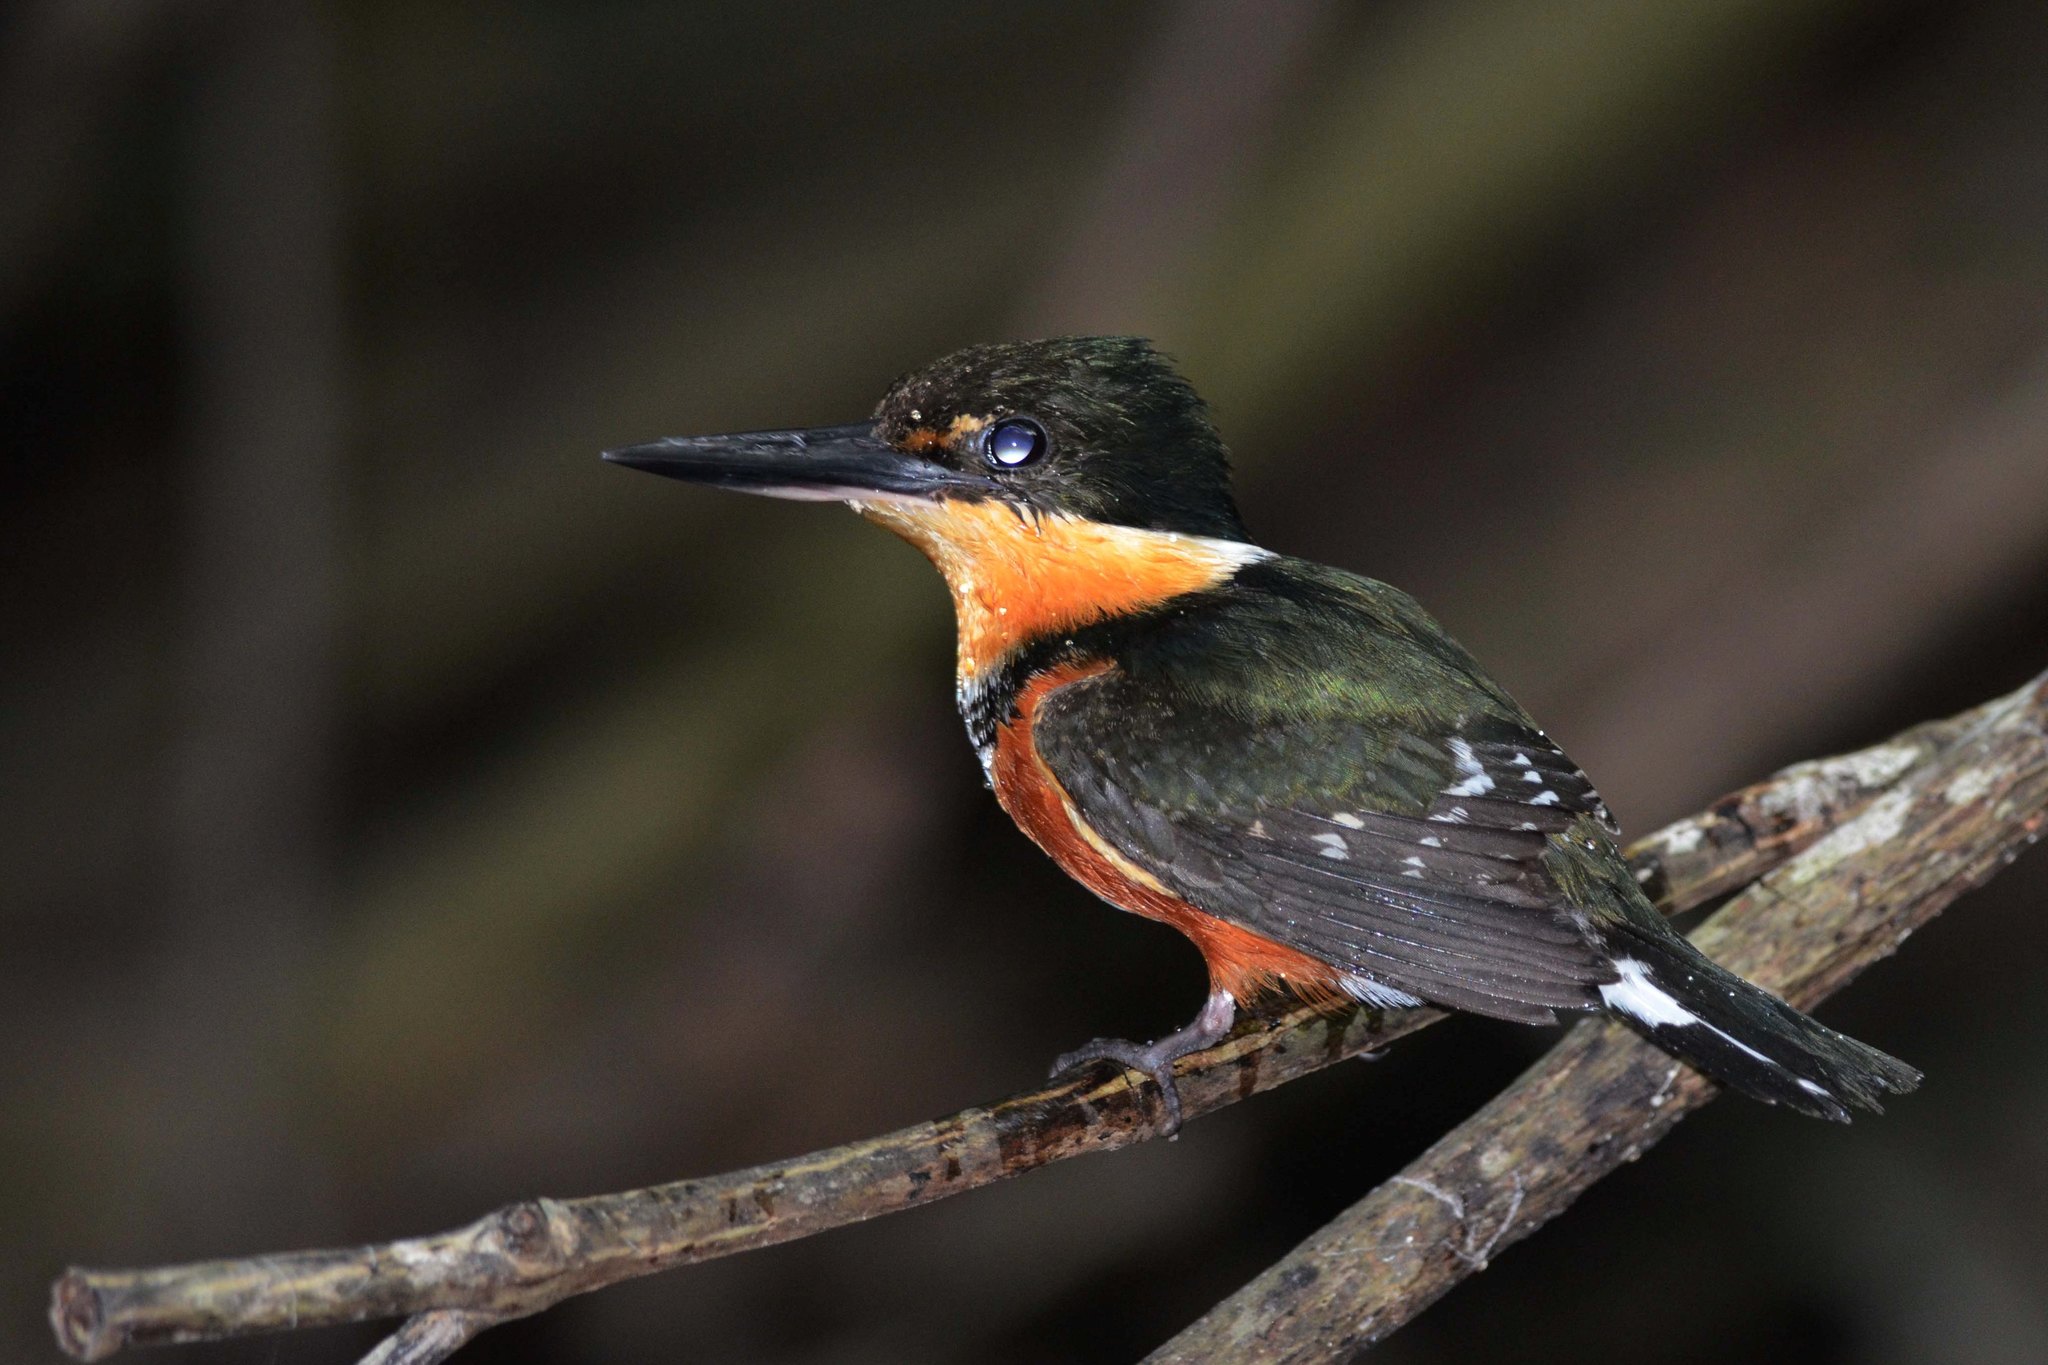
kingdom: Animalia
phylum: Chordata
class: Aves
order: Coraciiformes
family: Alcedinidae
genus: Chloroceryle
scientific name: Chloroceryle aenea
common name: American pygmy kingfisher
